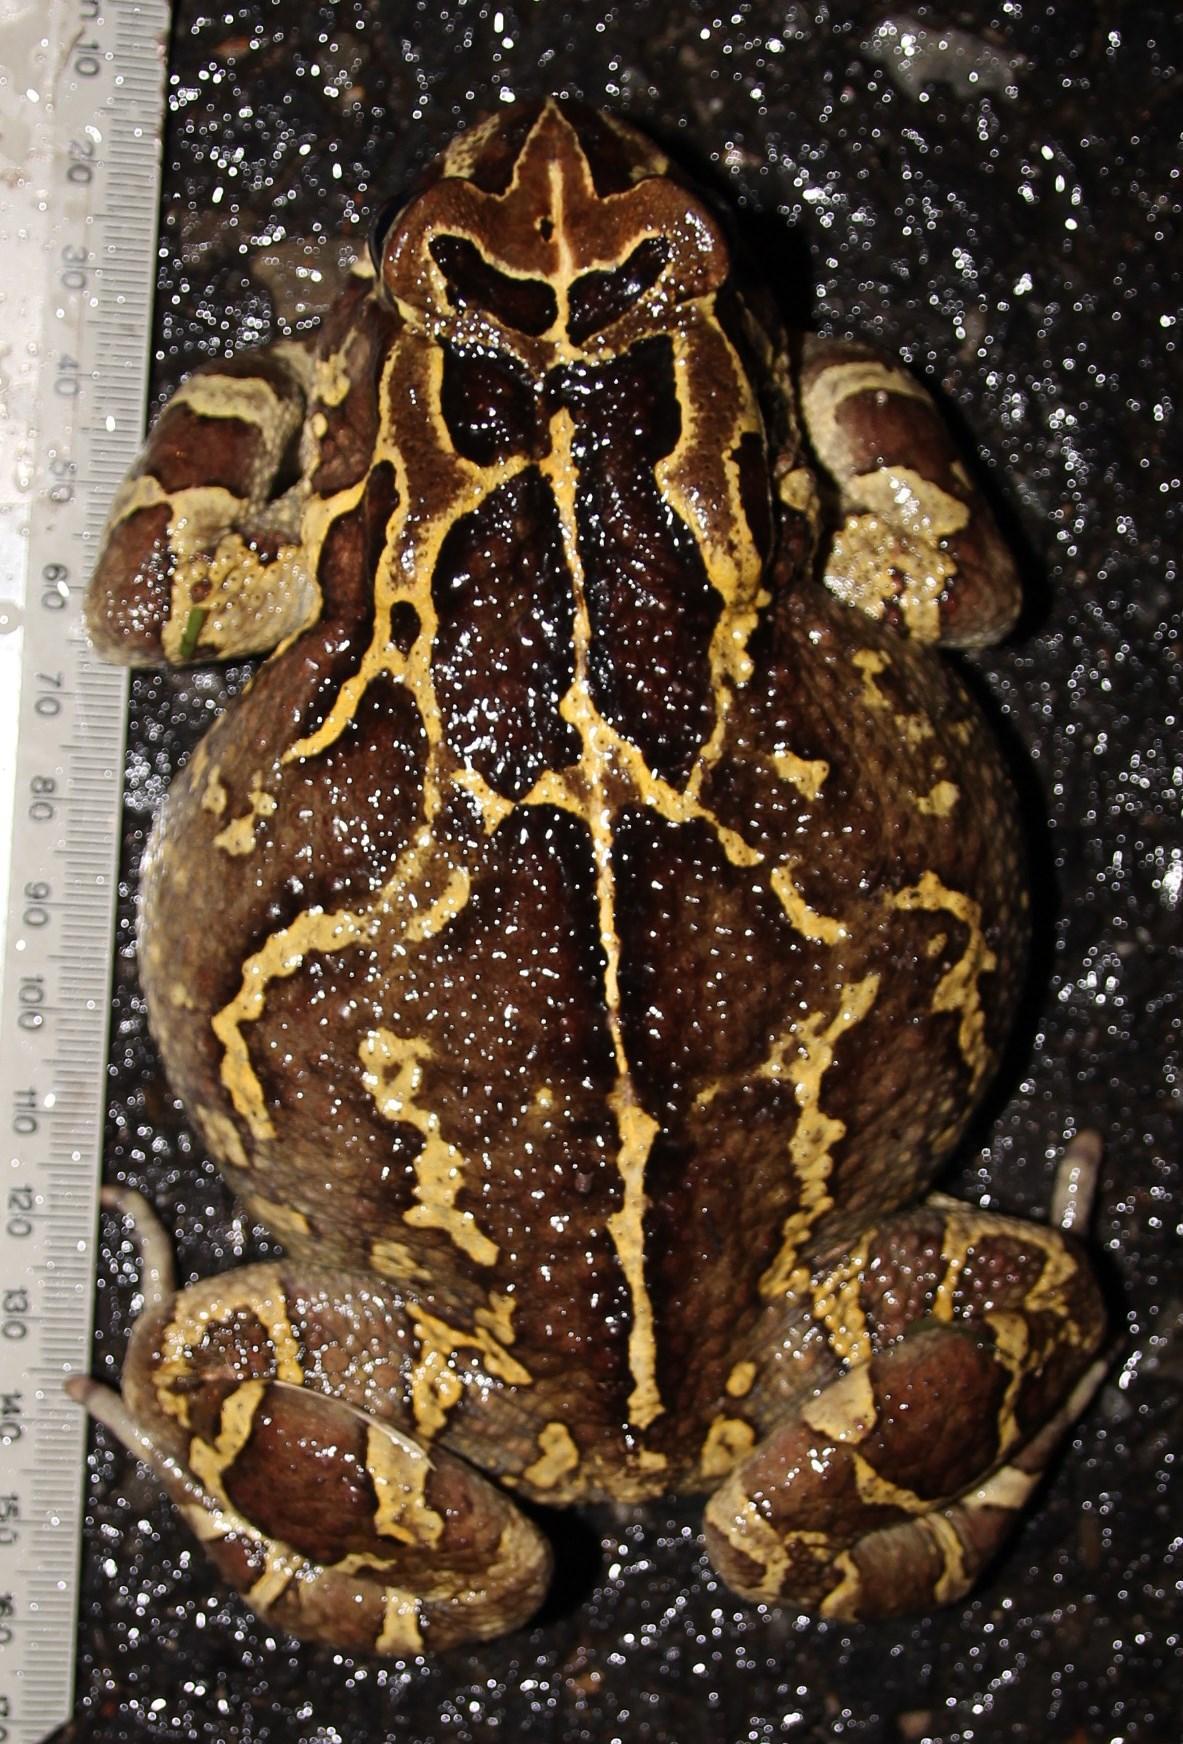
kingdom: Animalia
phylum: Chordata
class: Amphibia
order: Anura
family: Bufonidae
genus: Sclerophrys
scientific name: Sclerophrys pantherina
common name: Panther toad
